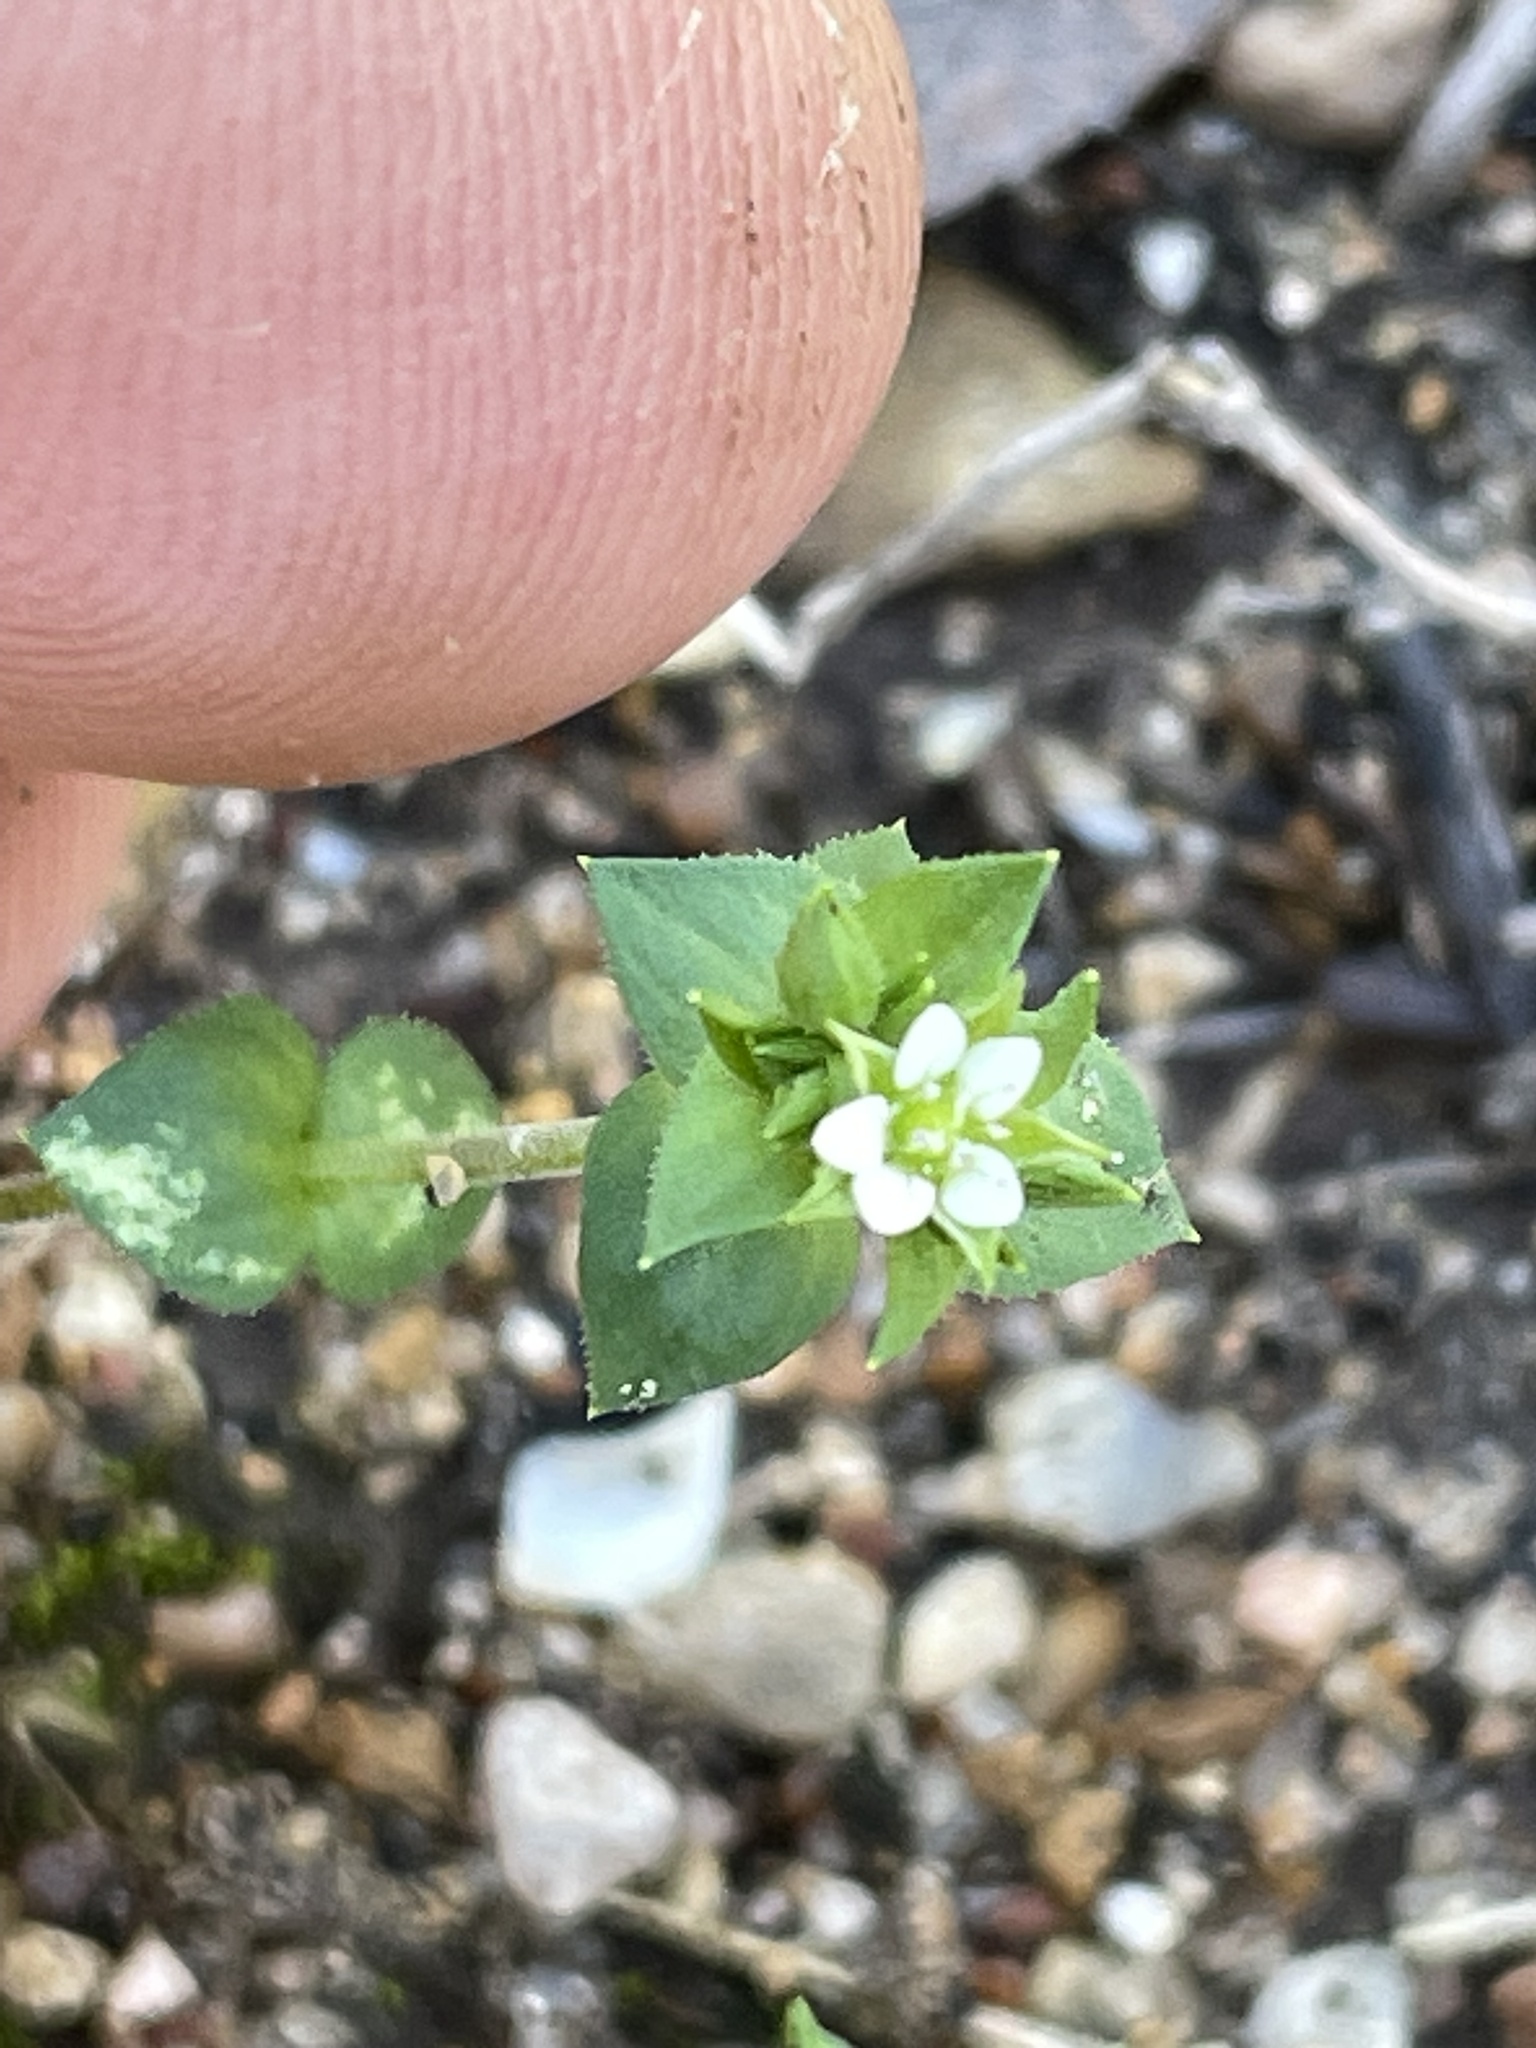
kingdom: Plantae
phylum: Tracheophyta
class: Magnoliopsida
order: Caryophyllales
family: Caryophyllaceae
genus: Arenaria
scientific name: Arenaria serpyllifolia
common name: Thyme-leaved sandwort
